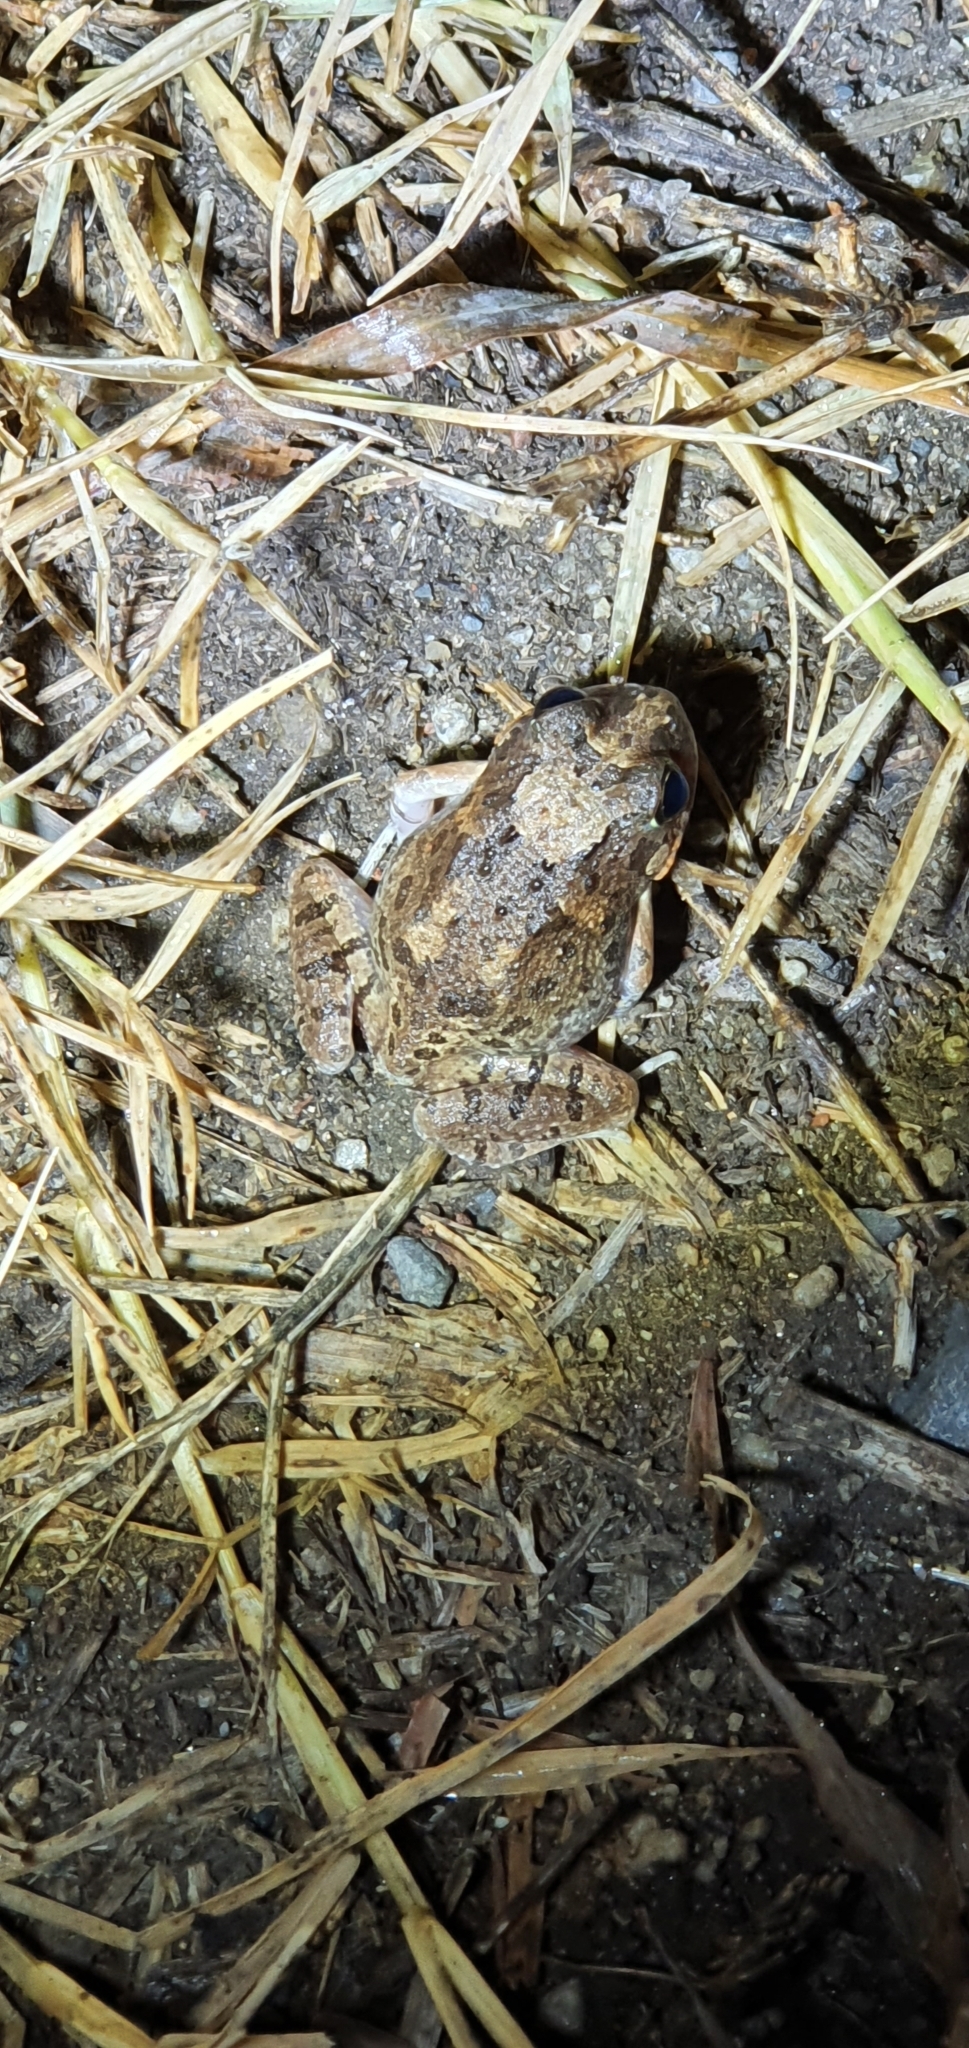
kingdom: Animalia
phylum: Chordata
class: Amphibia
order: Anura
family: Limnodynastidae
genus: Platyplectrum
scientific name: Platyplectrum ornatum
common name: Ornate burrowing frog
